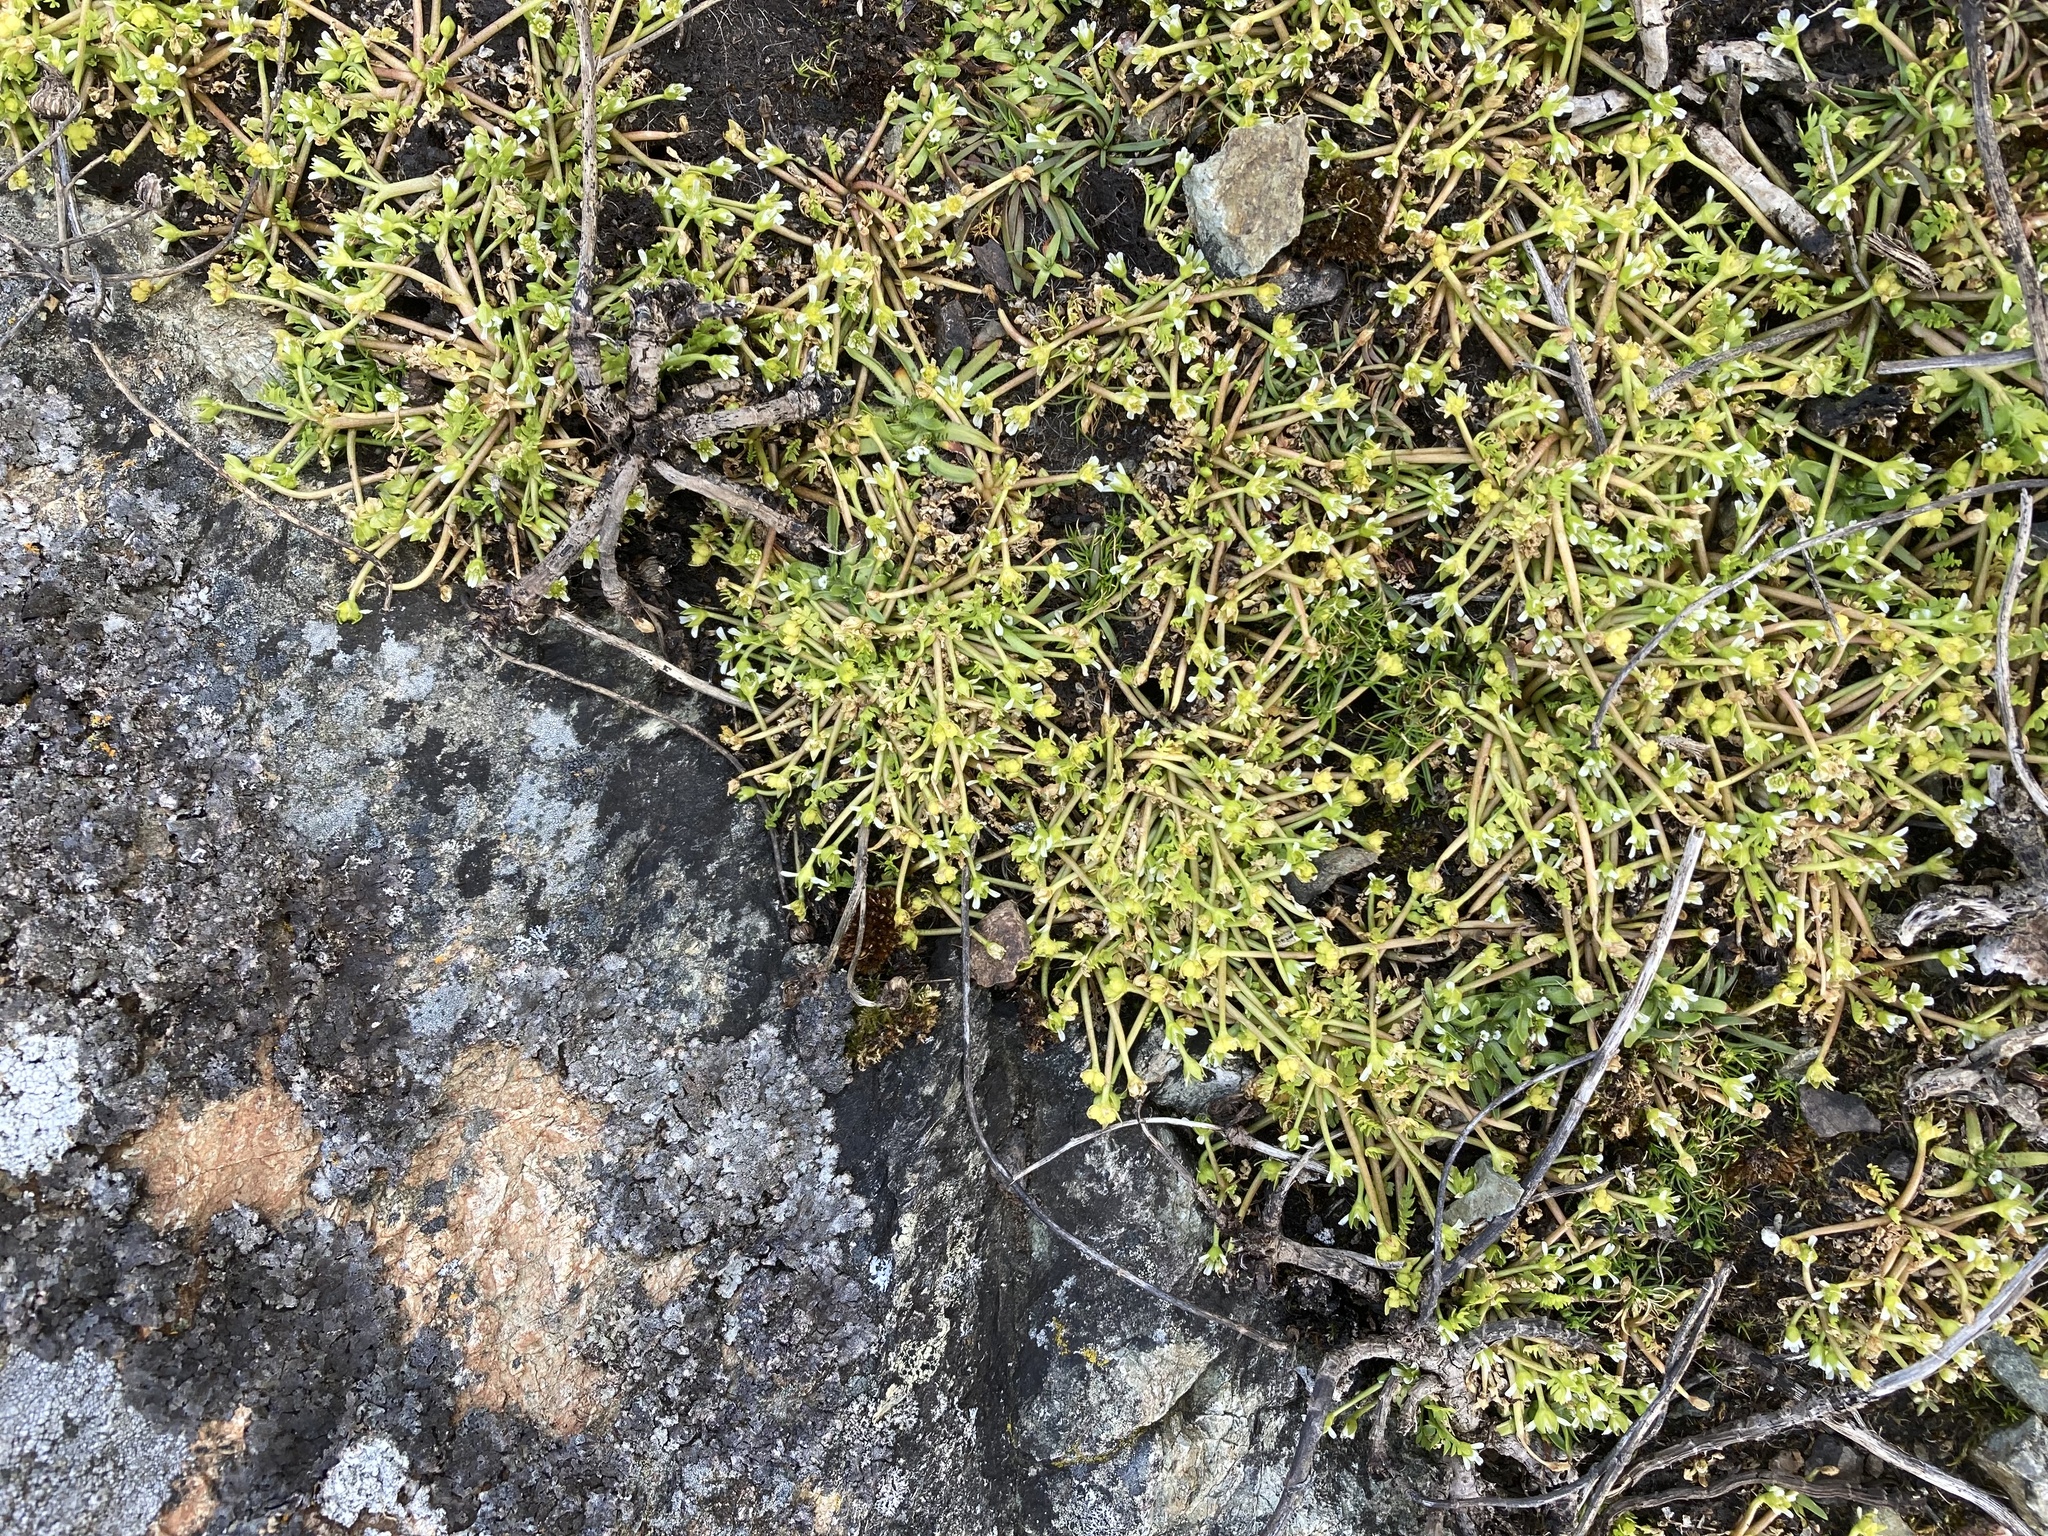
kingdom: Plantae
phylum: Tracheophyta
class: Magnoliopsida
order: Brassicales
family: Limnanthaceae
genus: Limnanthes
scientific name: Limnanthes macounii
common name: Macoun's meadowfoam
